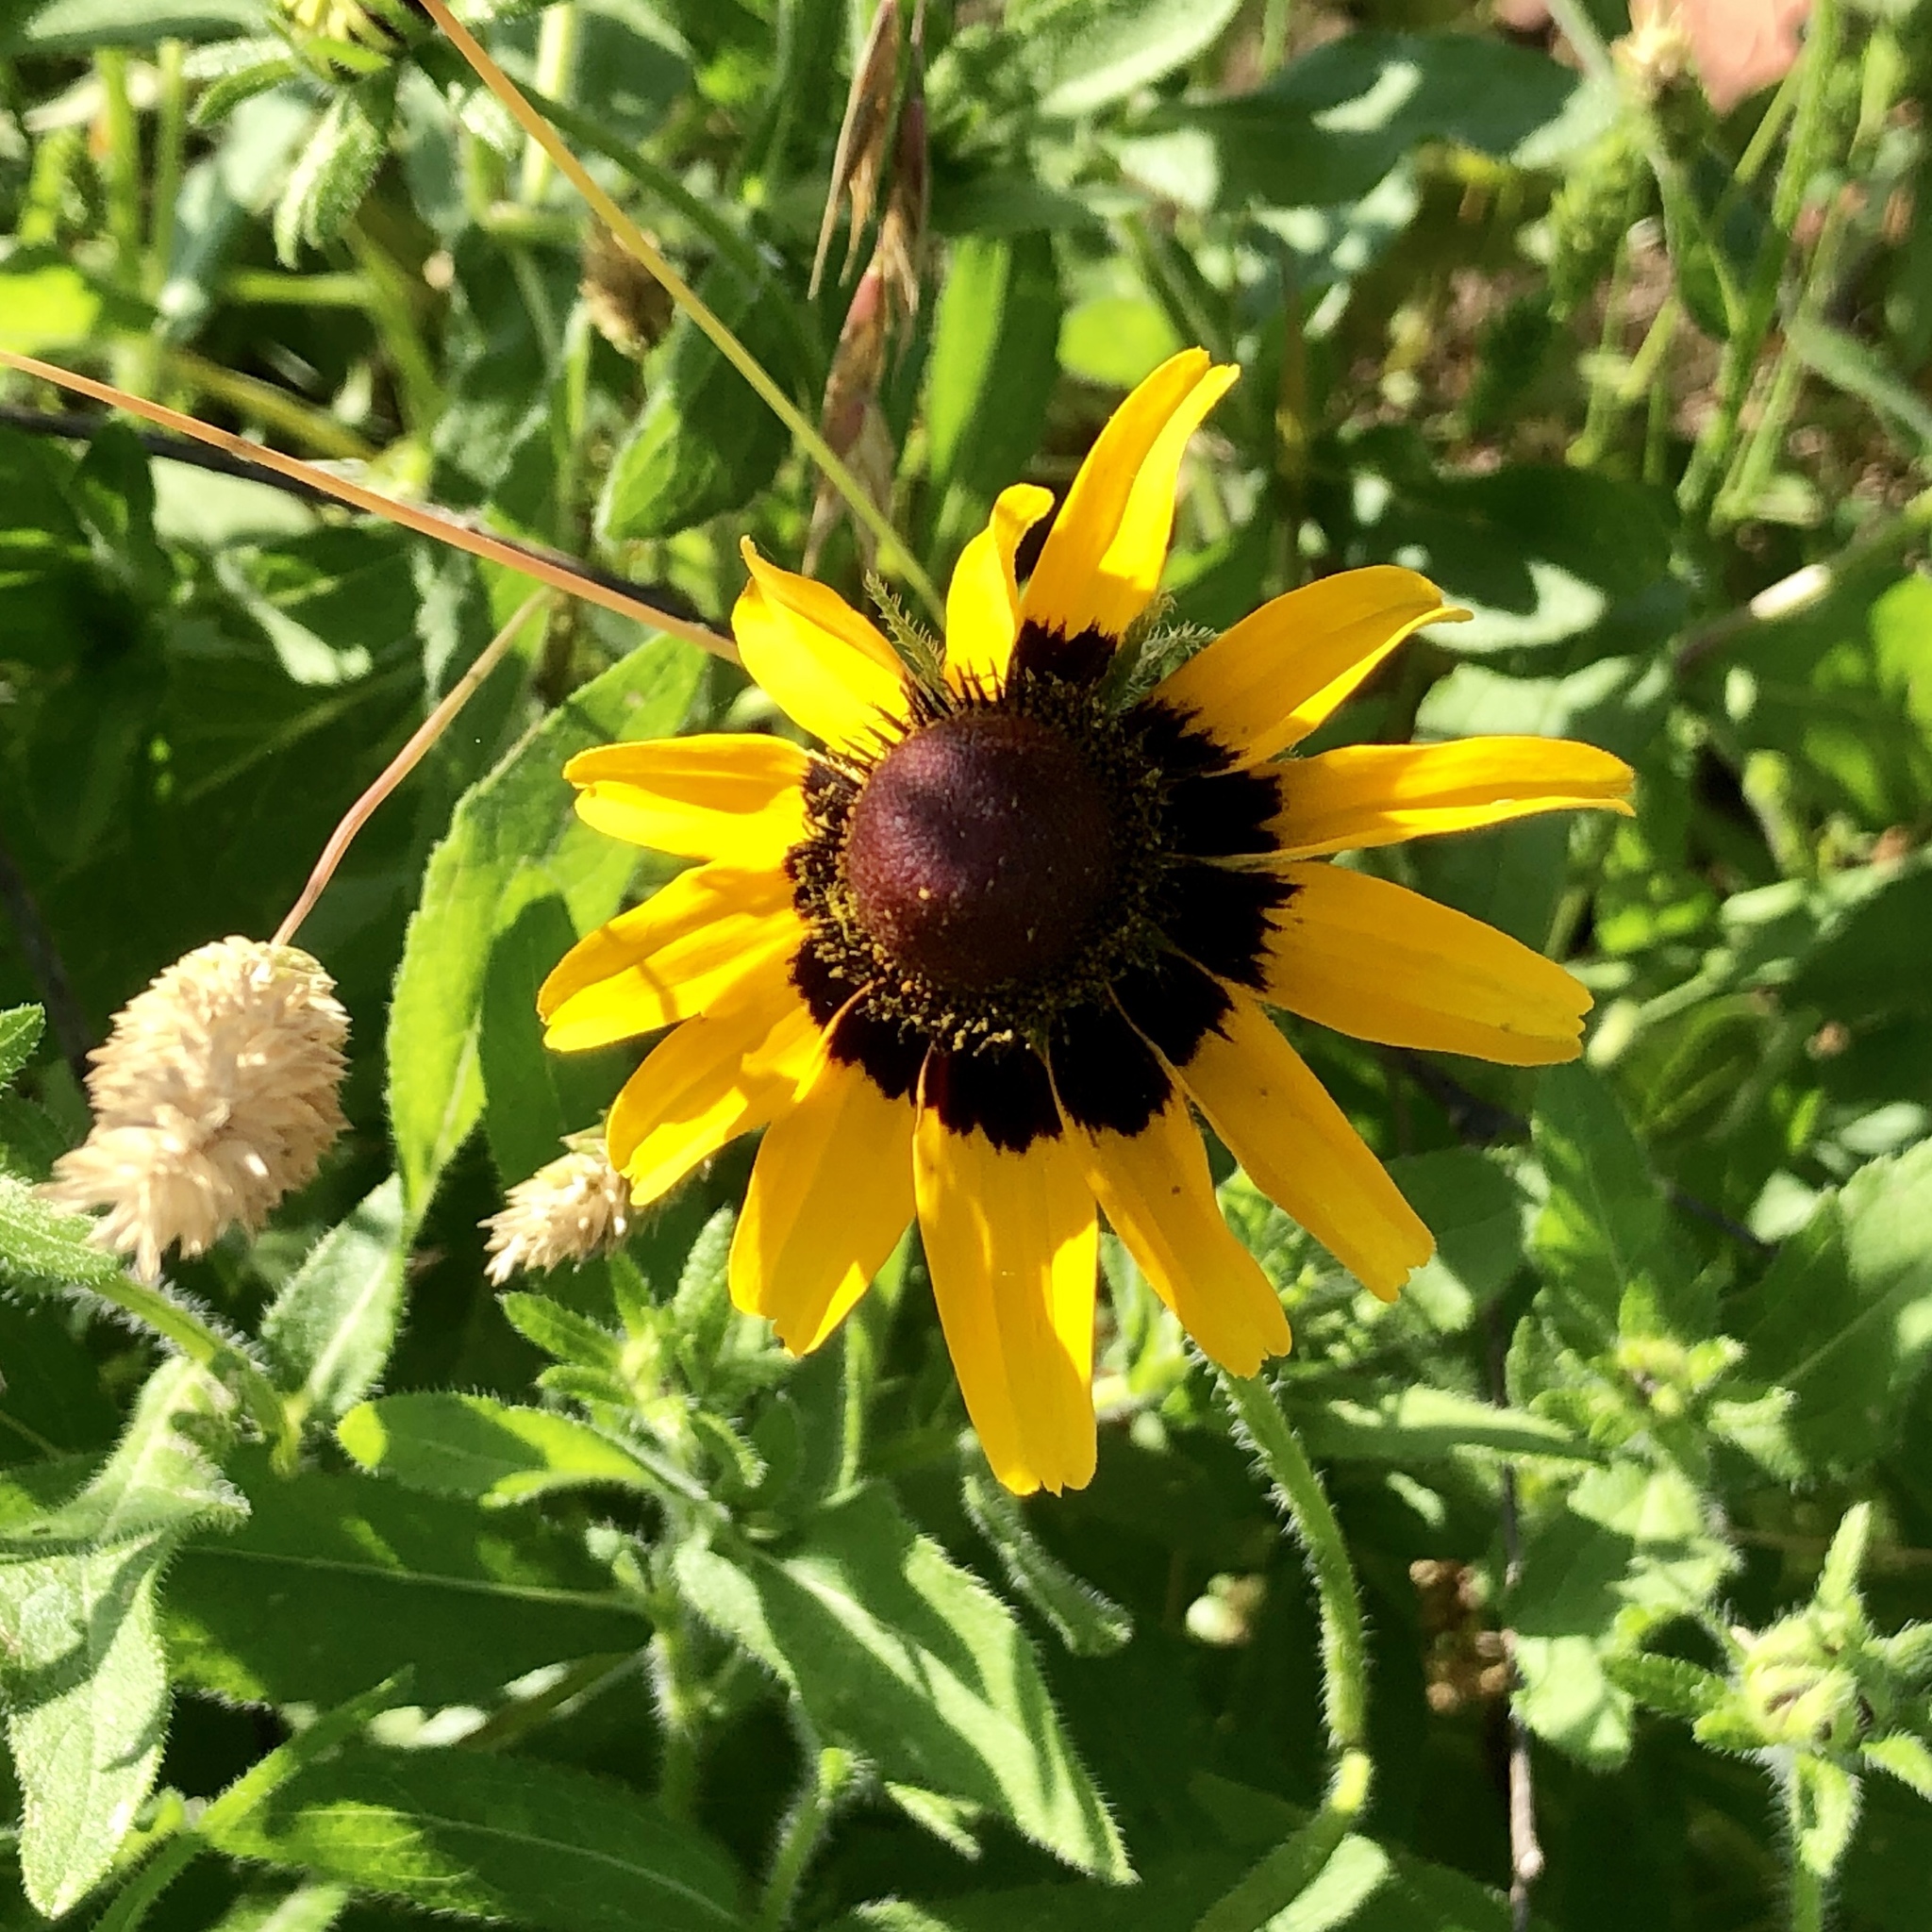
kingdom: Plantae
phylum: Tracheophyta
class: Magnoliopsida
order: Asterales
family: Asteraceae
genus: Rudbeckia
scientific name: Rudbeckia hirta
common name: Black-eyed-susan
